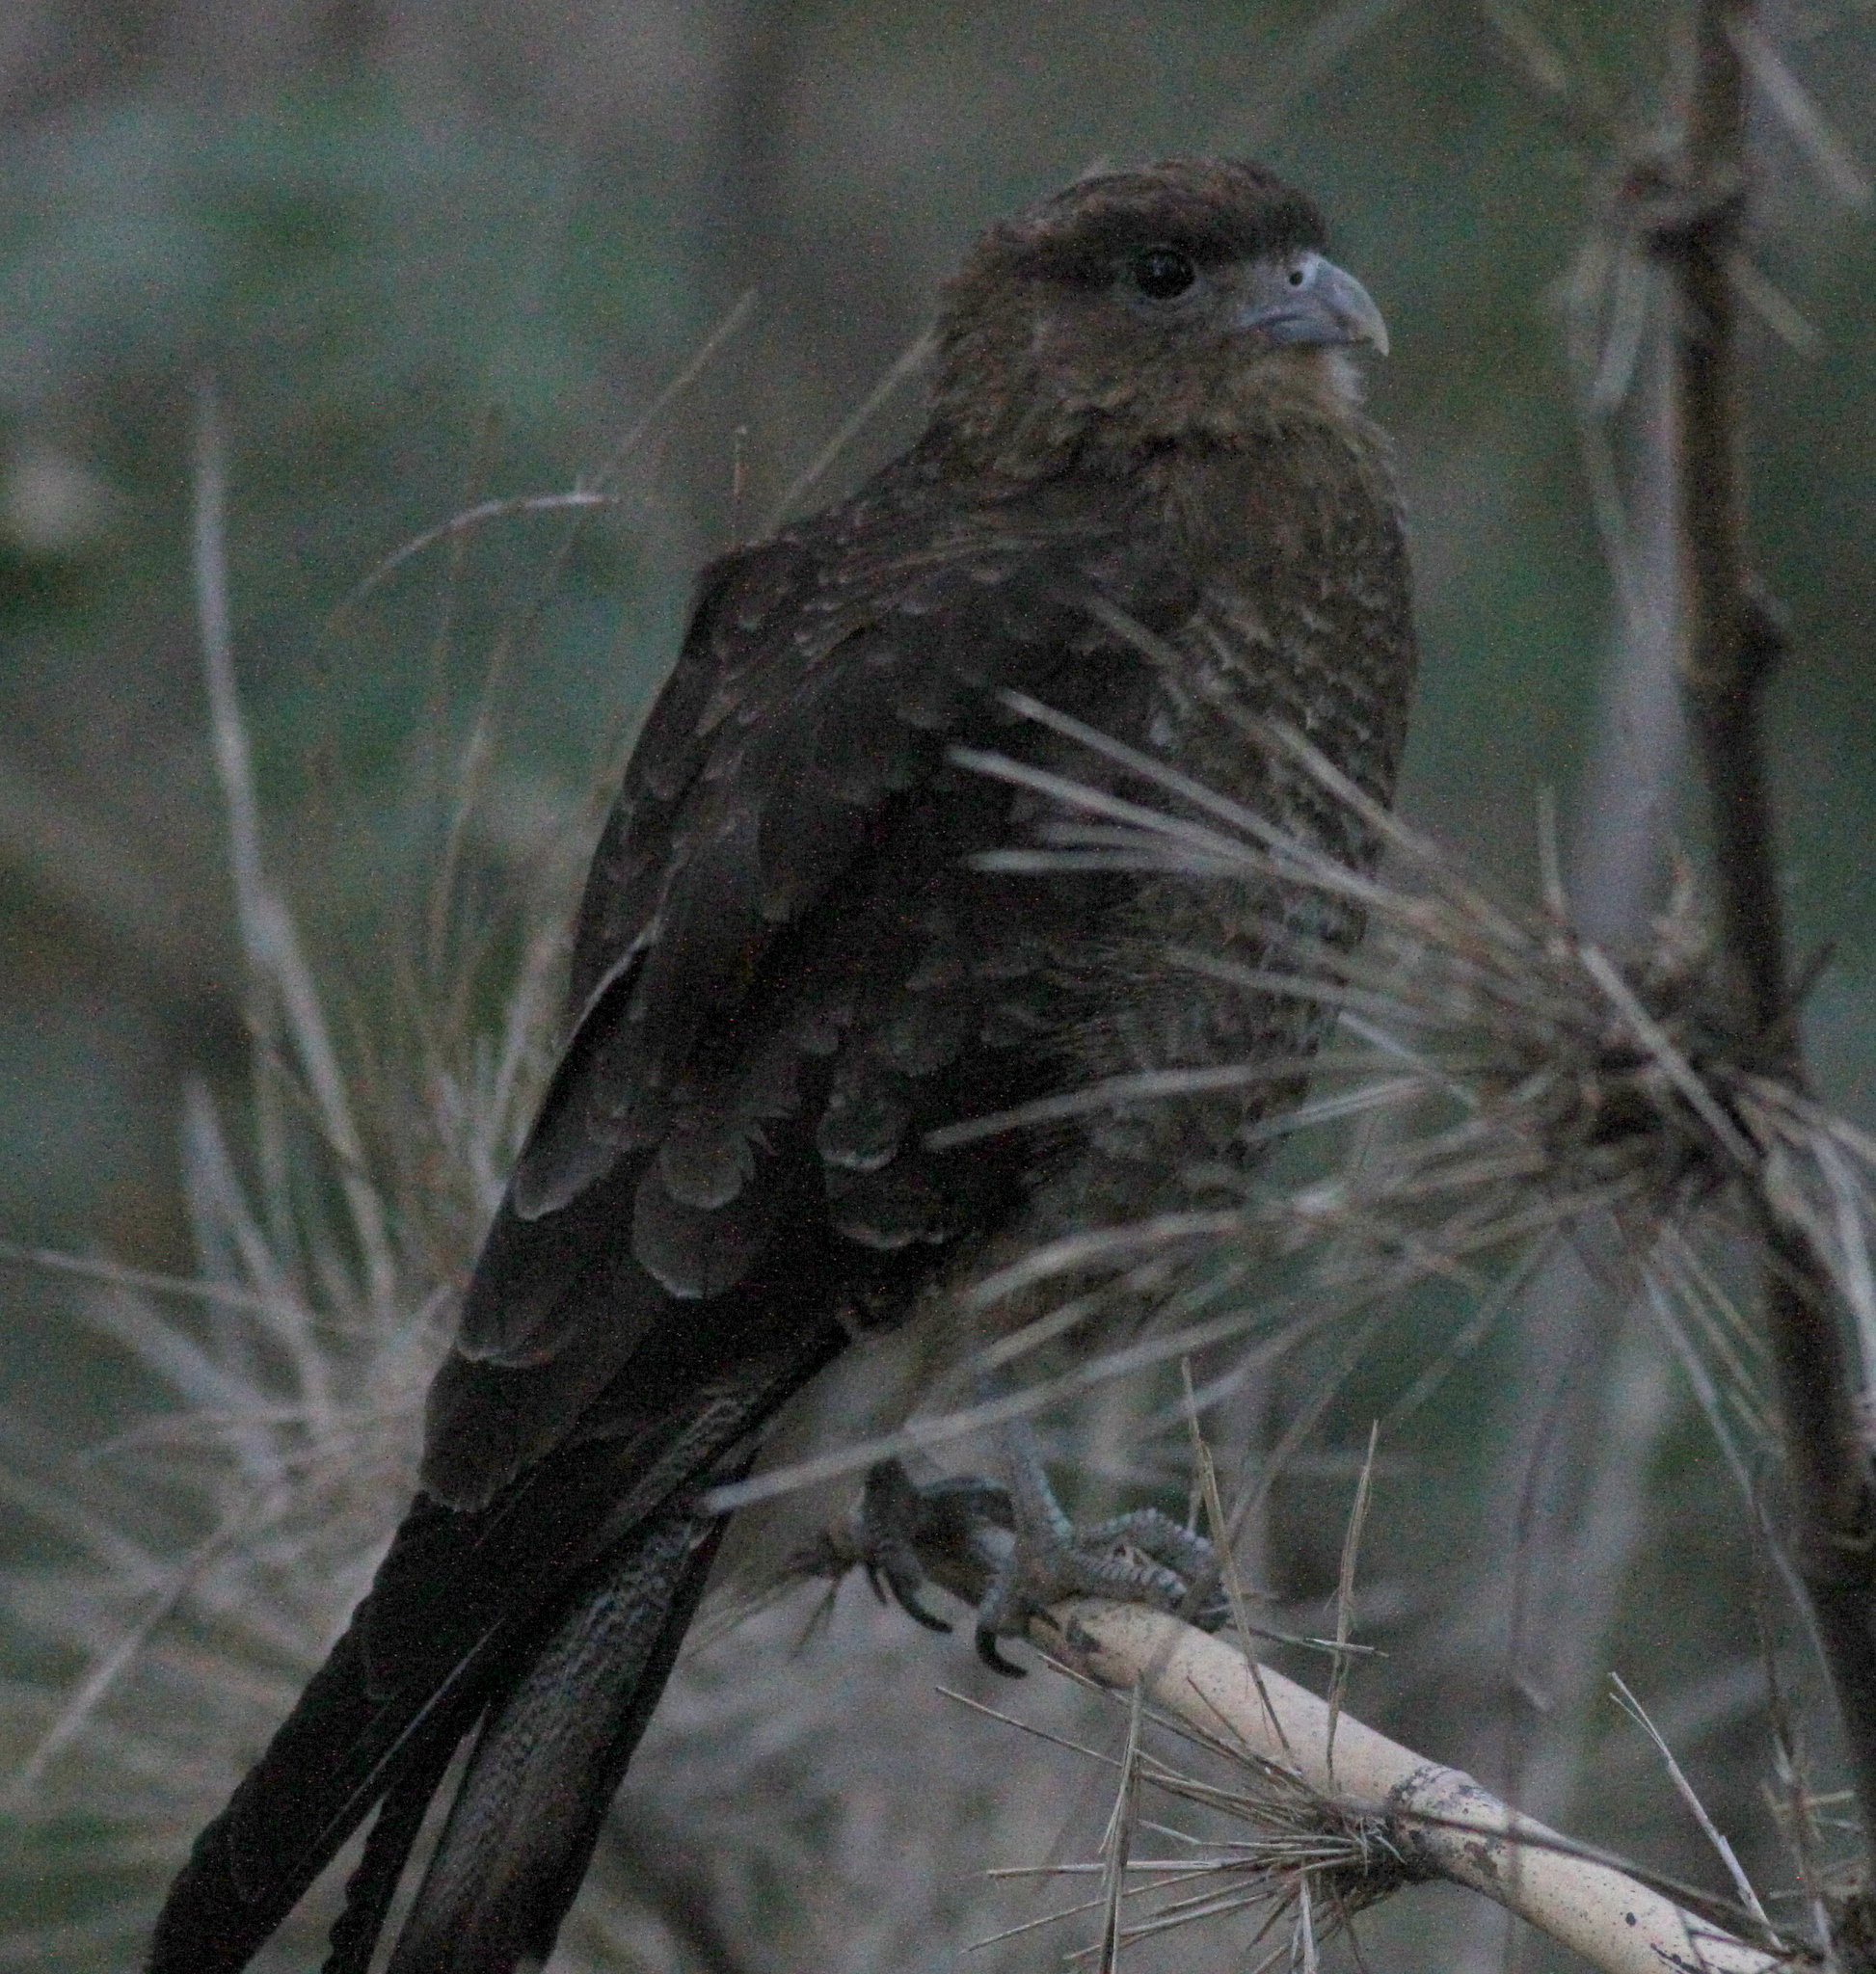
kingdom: Animalia
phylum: Chordata
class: Aves
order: Falconiformes
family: Falconidae
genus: Daptrius
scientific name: Daptrius
